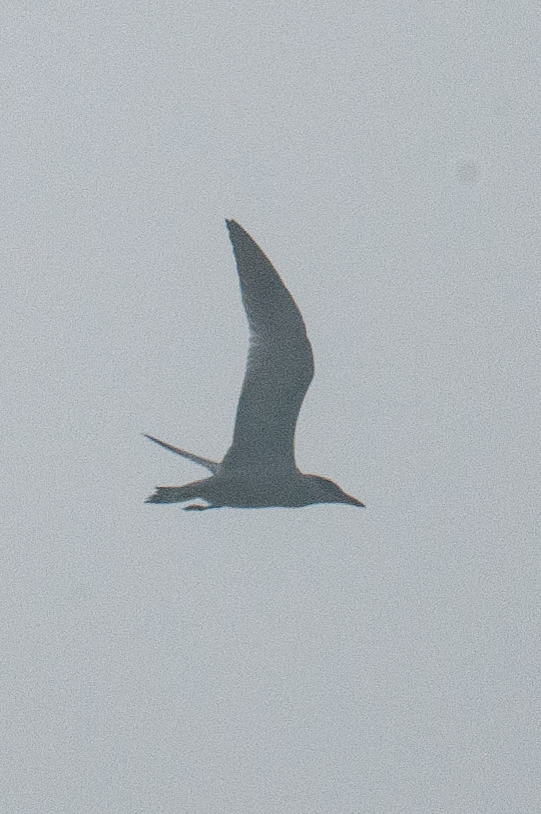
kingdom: Animalia
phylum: Chordata
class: Aves
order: Charadriiformes
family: Laridae
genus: Hydroprogne
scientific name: Hydroprogne caspia
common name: Caspian tern
